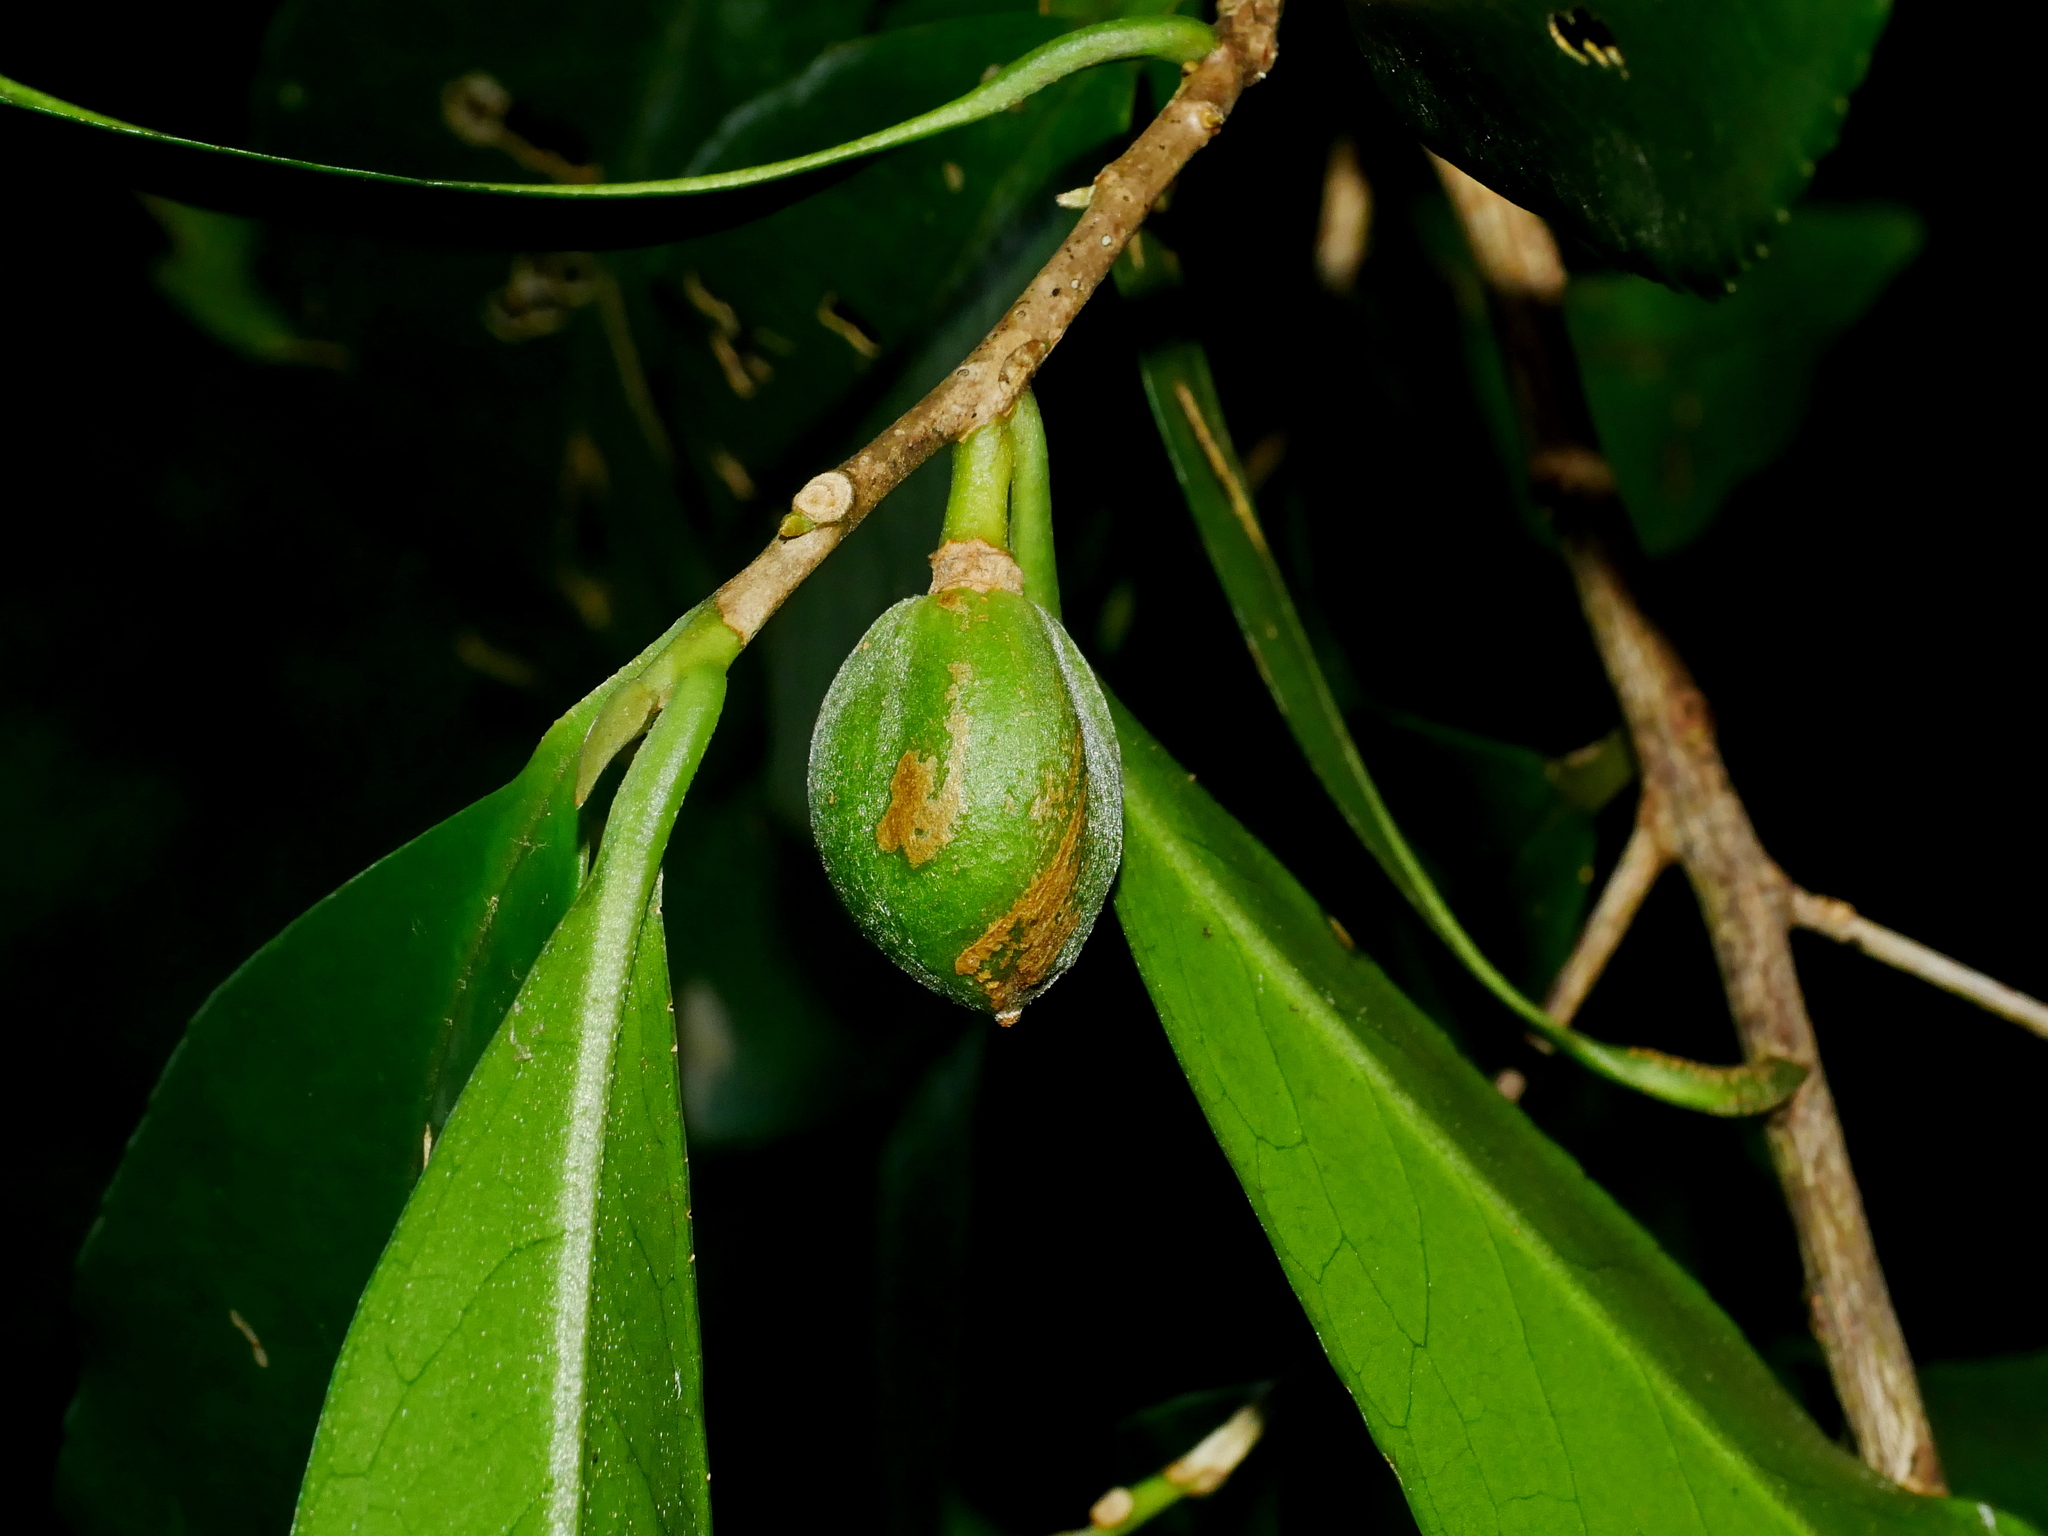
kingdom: Plantae
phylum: Tracheophyta
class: Magnoliopsida
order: Ericales
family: Theaceae
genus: Pyrenaria
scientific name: Pyrenaria microcarpa
